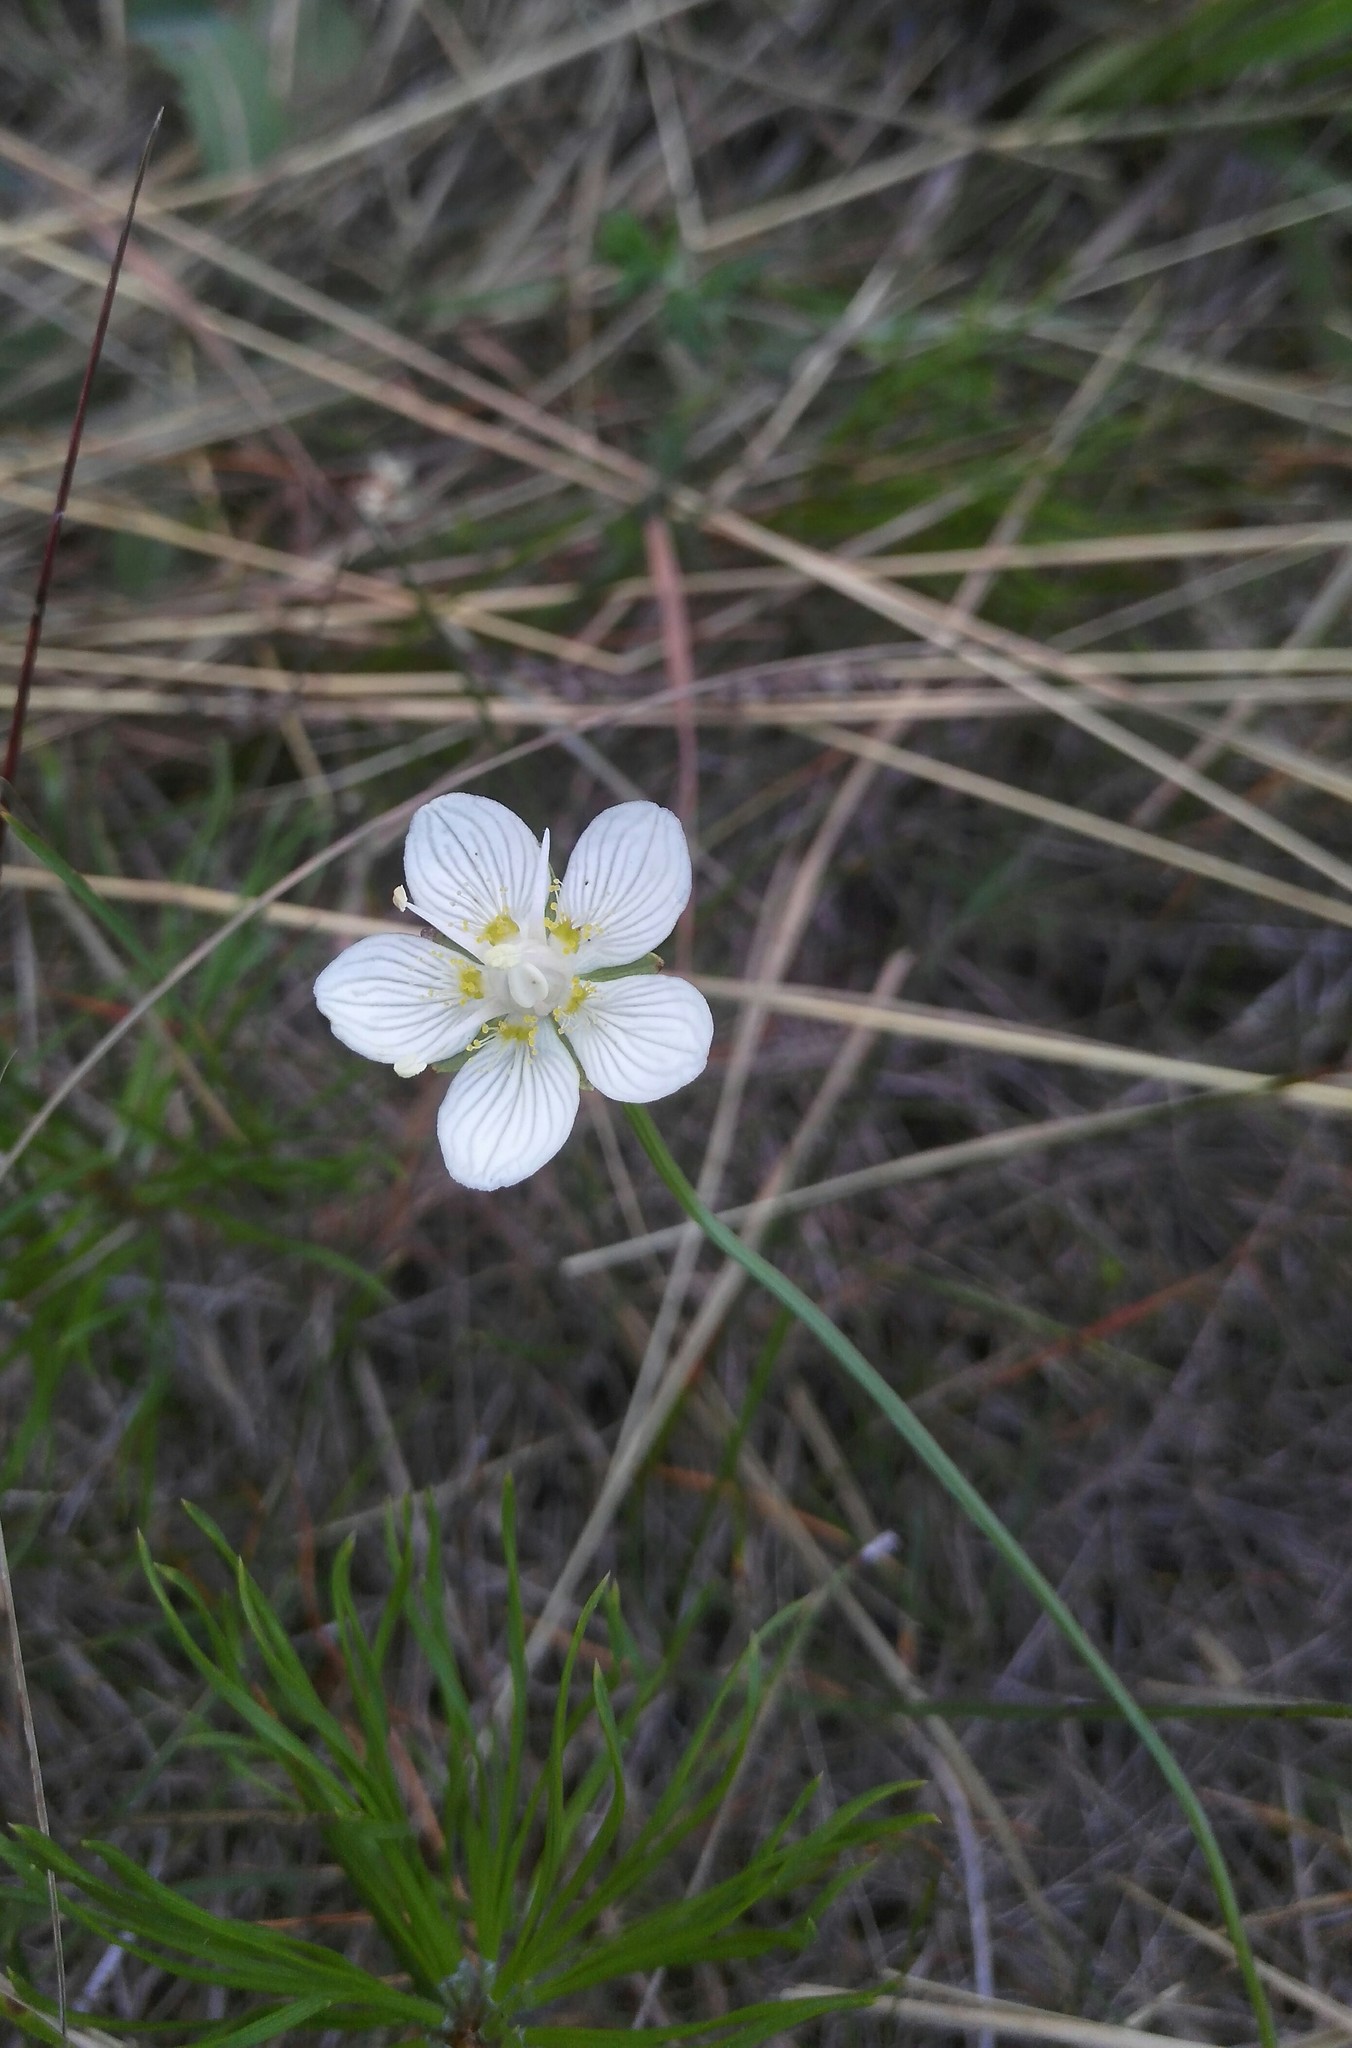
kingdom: Plantae
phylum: Tracheophyta
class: Magnoliopsida
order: Celastrales
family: Parnassiaceae
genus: Parnassia
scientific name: Parnassia palustris
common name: Grass-of-parnassus
